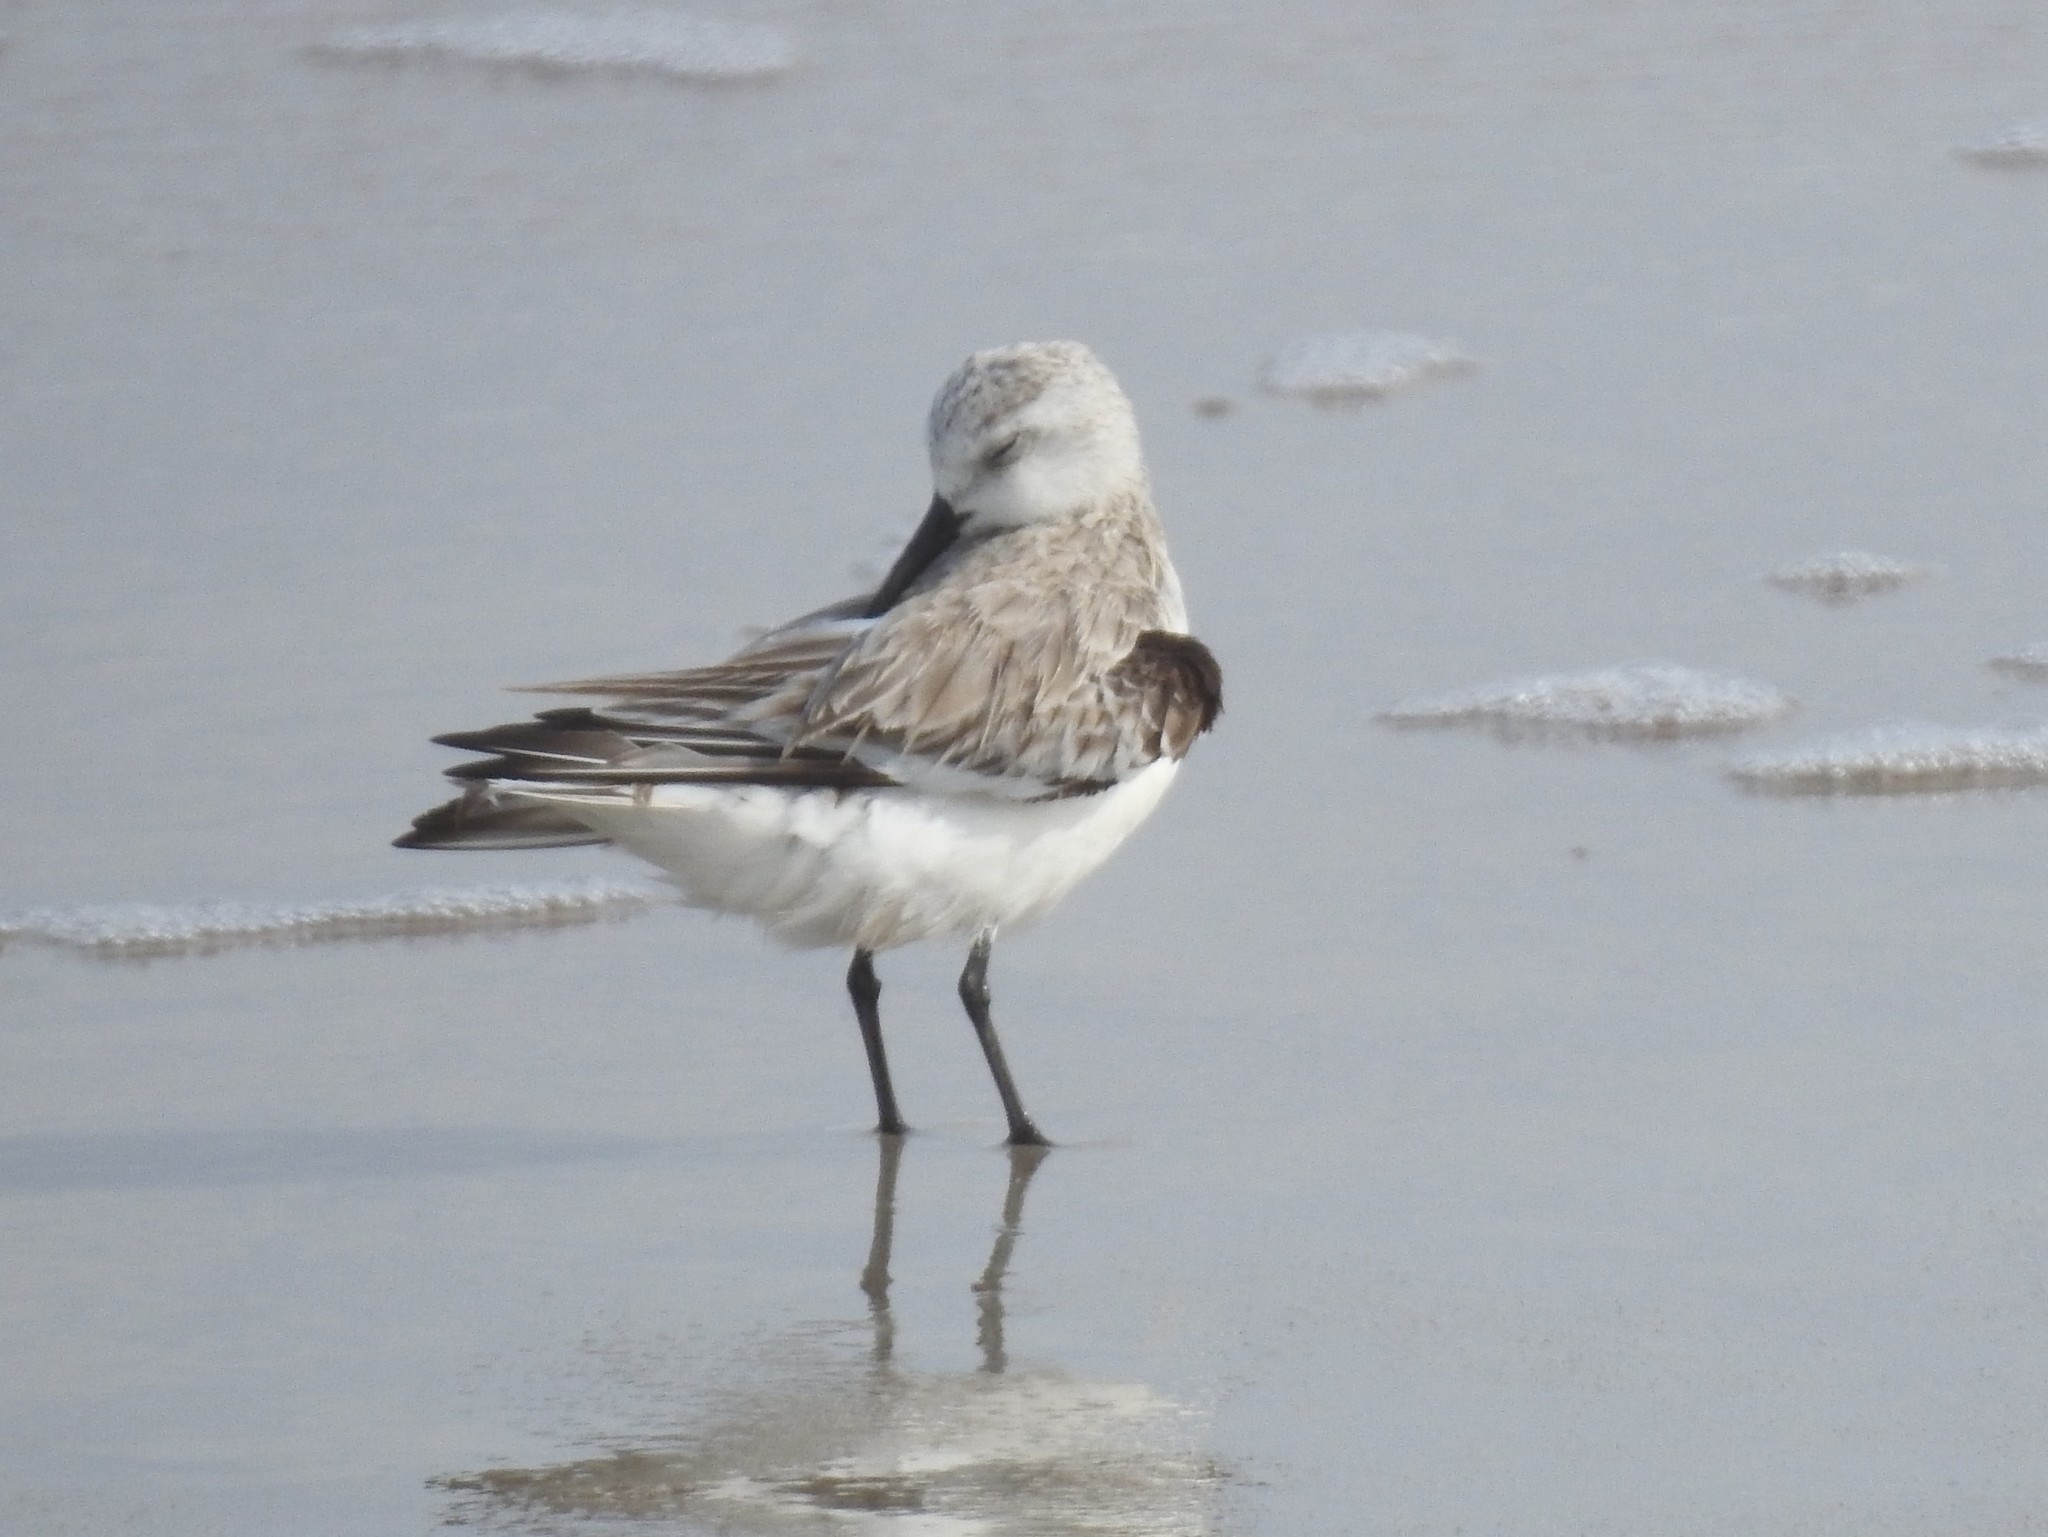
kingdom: Animalia
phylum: Chordata
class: Aves
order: Charadriiformes
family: Scolopacidae
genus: Calidris
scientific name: Calidris alba
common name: Sanderling
